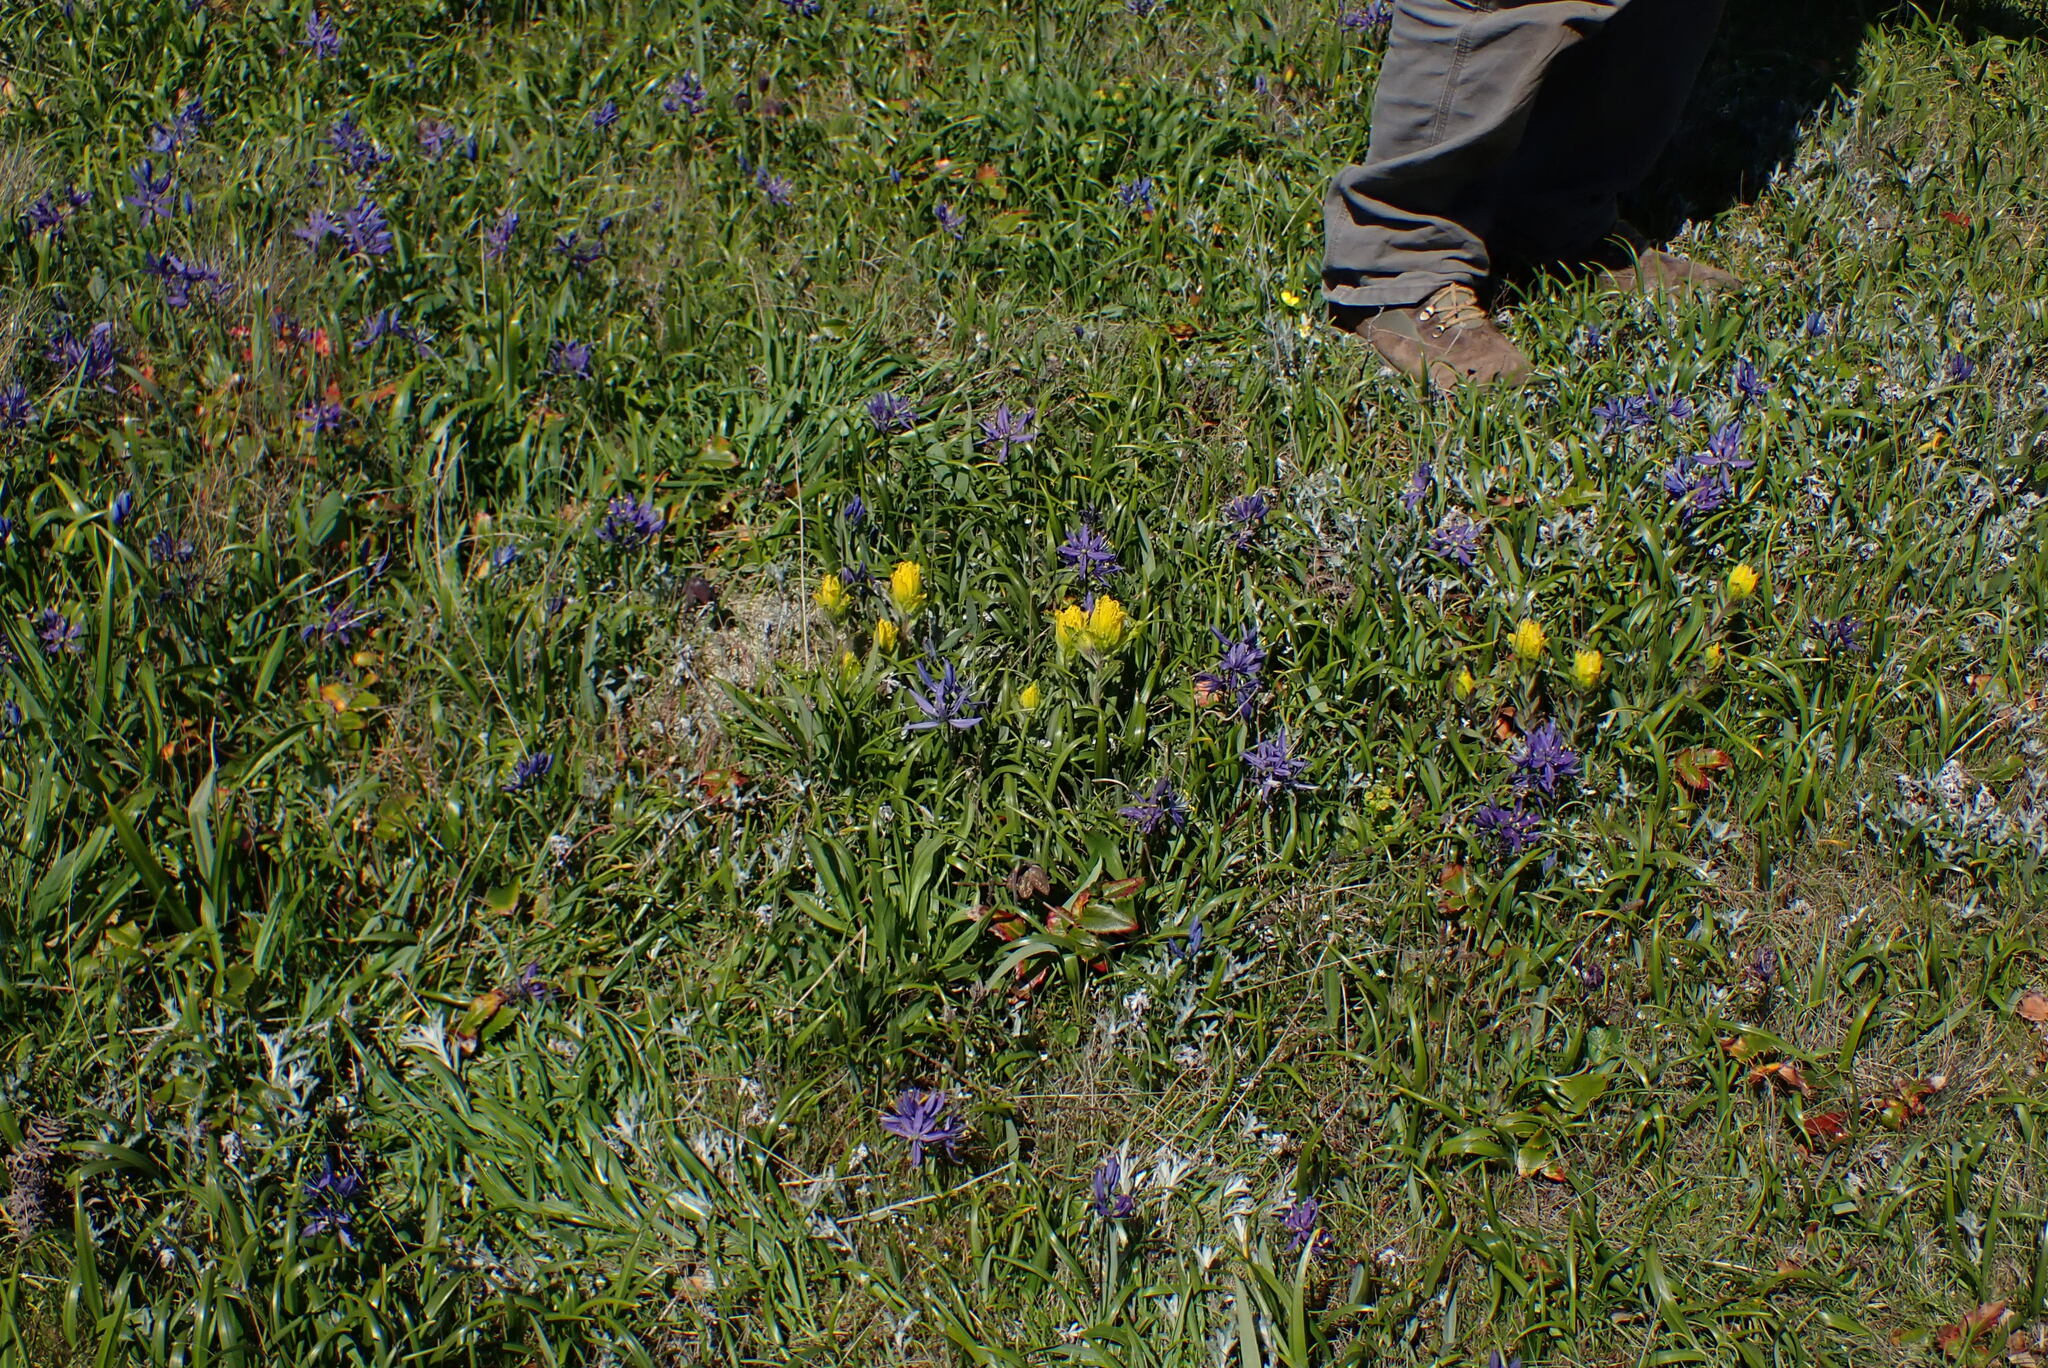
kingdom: Plantae
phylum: Tracheophyta
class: Magnoliopsida
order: Lamiales
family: Orobanchaceae
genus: Castilleja
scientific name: Castilleja levisecta
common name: Golden paintbrush
